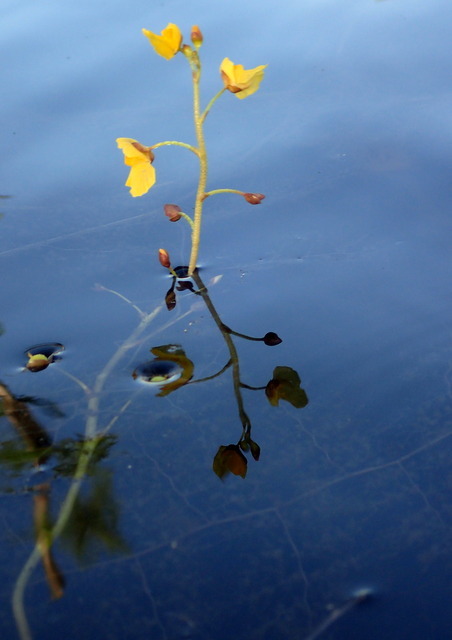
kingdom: Plantae
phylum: Tracheophyta
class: Magnoliopsida
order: Lamiales
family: Lentibulariaceae
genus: Utricularia
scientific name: Utricularia foliosa
